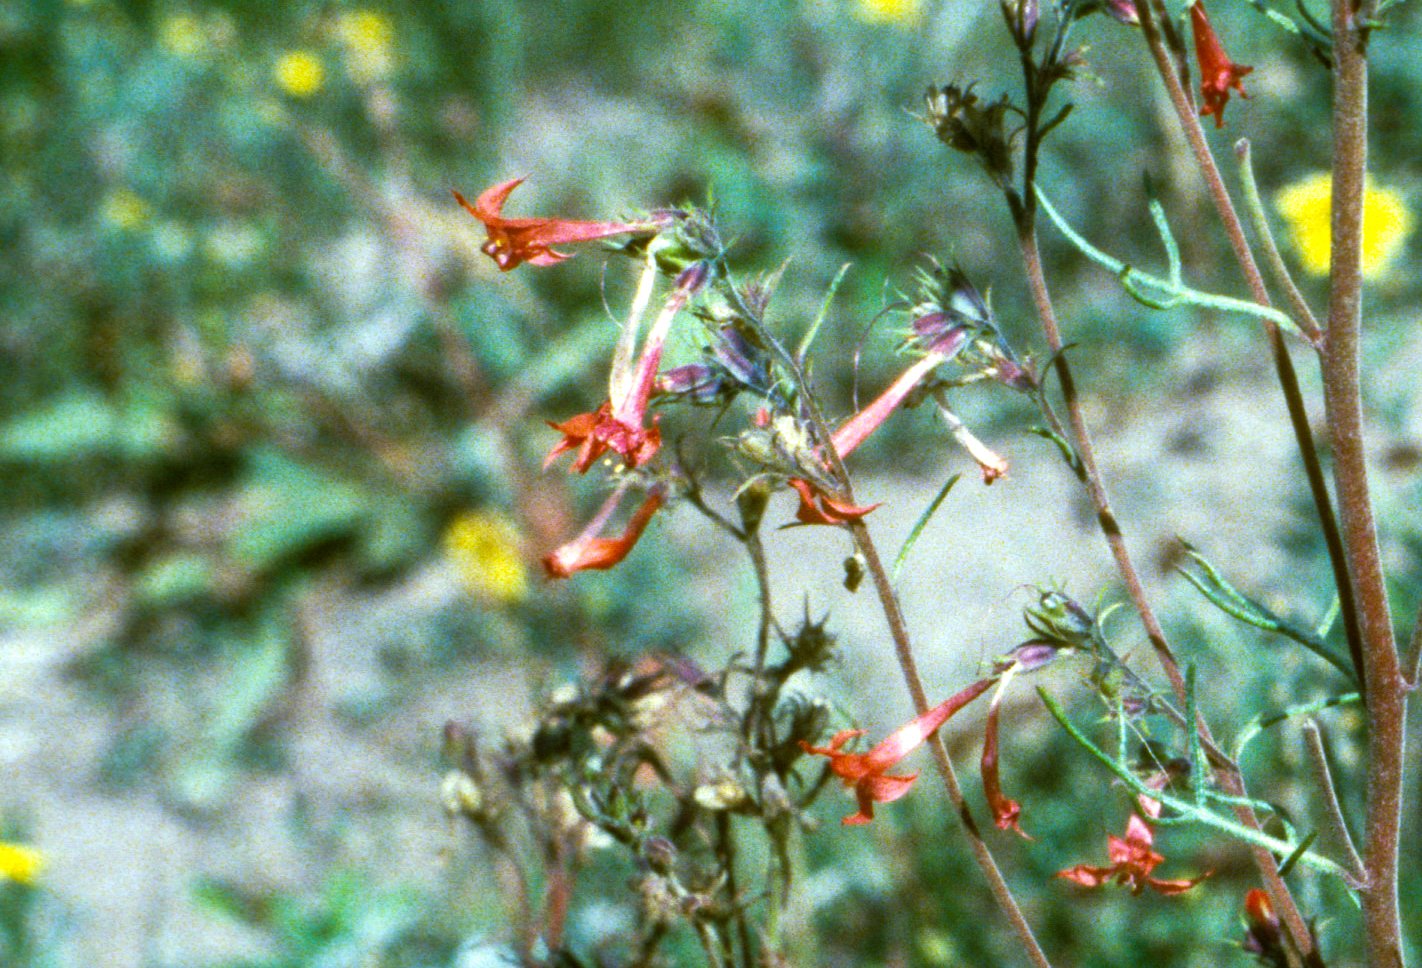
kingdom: Plantae
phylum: Tracheophyta
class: Magnoliopsida
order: Ericales
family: Polemoniaceae
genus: Ipomopsis
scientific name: Ipomopsis aggregata
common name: Scarlet gilia
